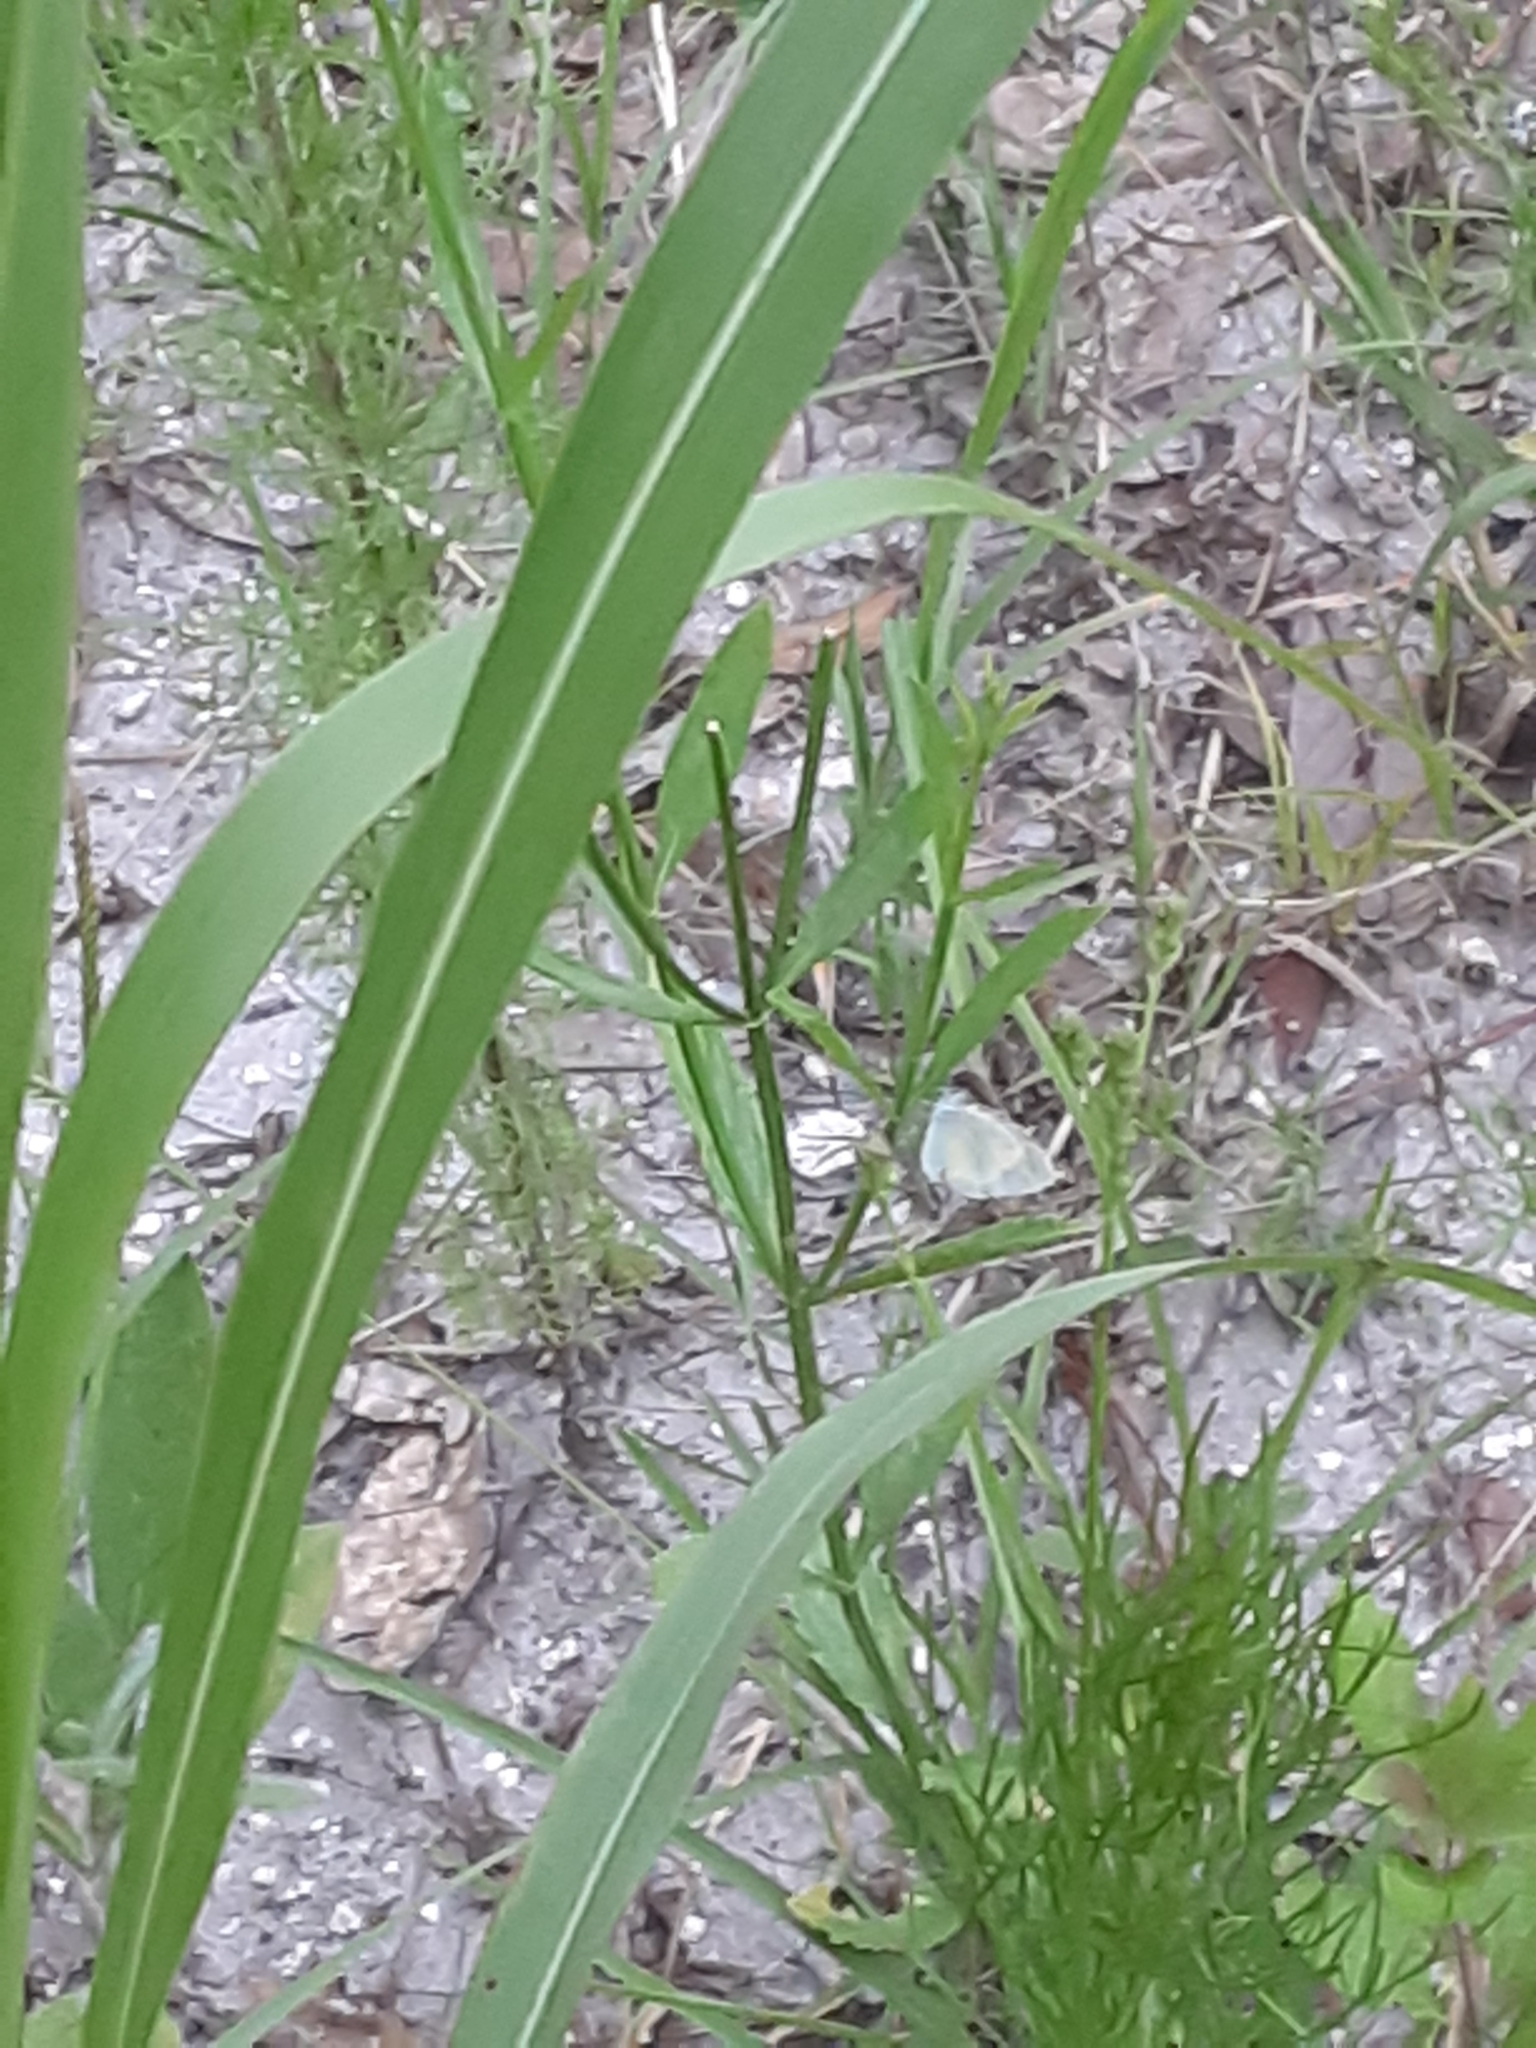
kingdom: Animalia
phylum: Arthropoda
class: Insecta
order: Lepidoptera
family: Pieridae
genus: Eurema
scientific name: Eurema daira
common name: Barred sulphur
